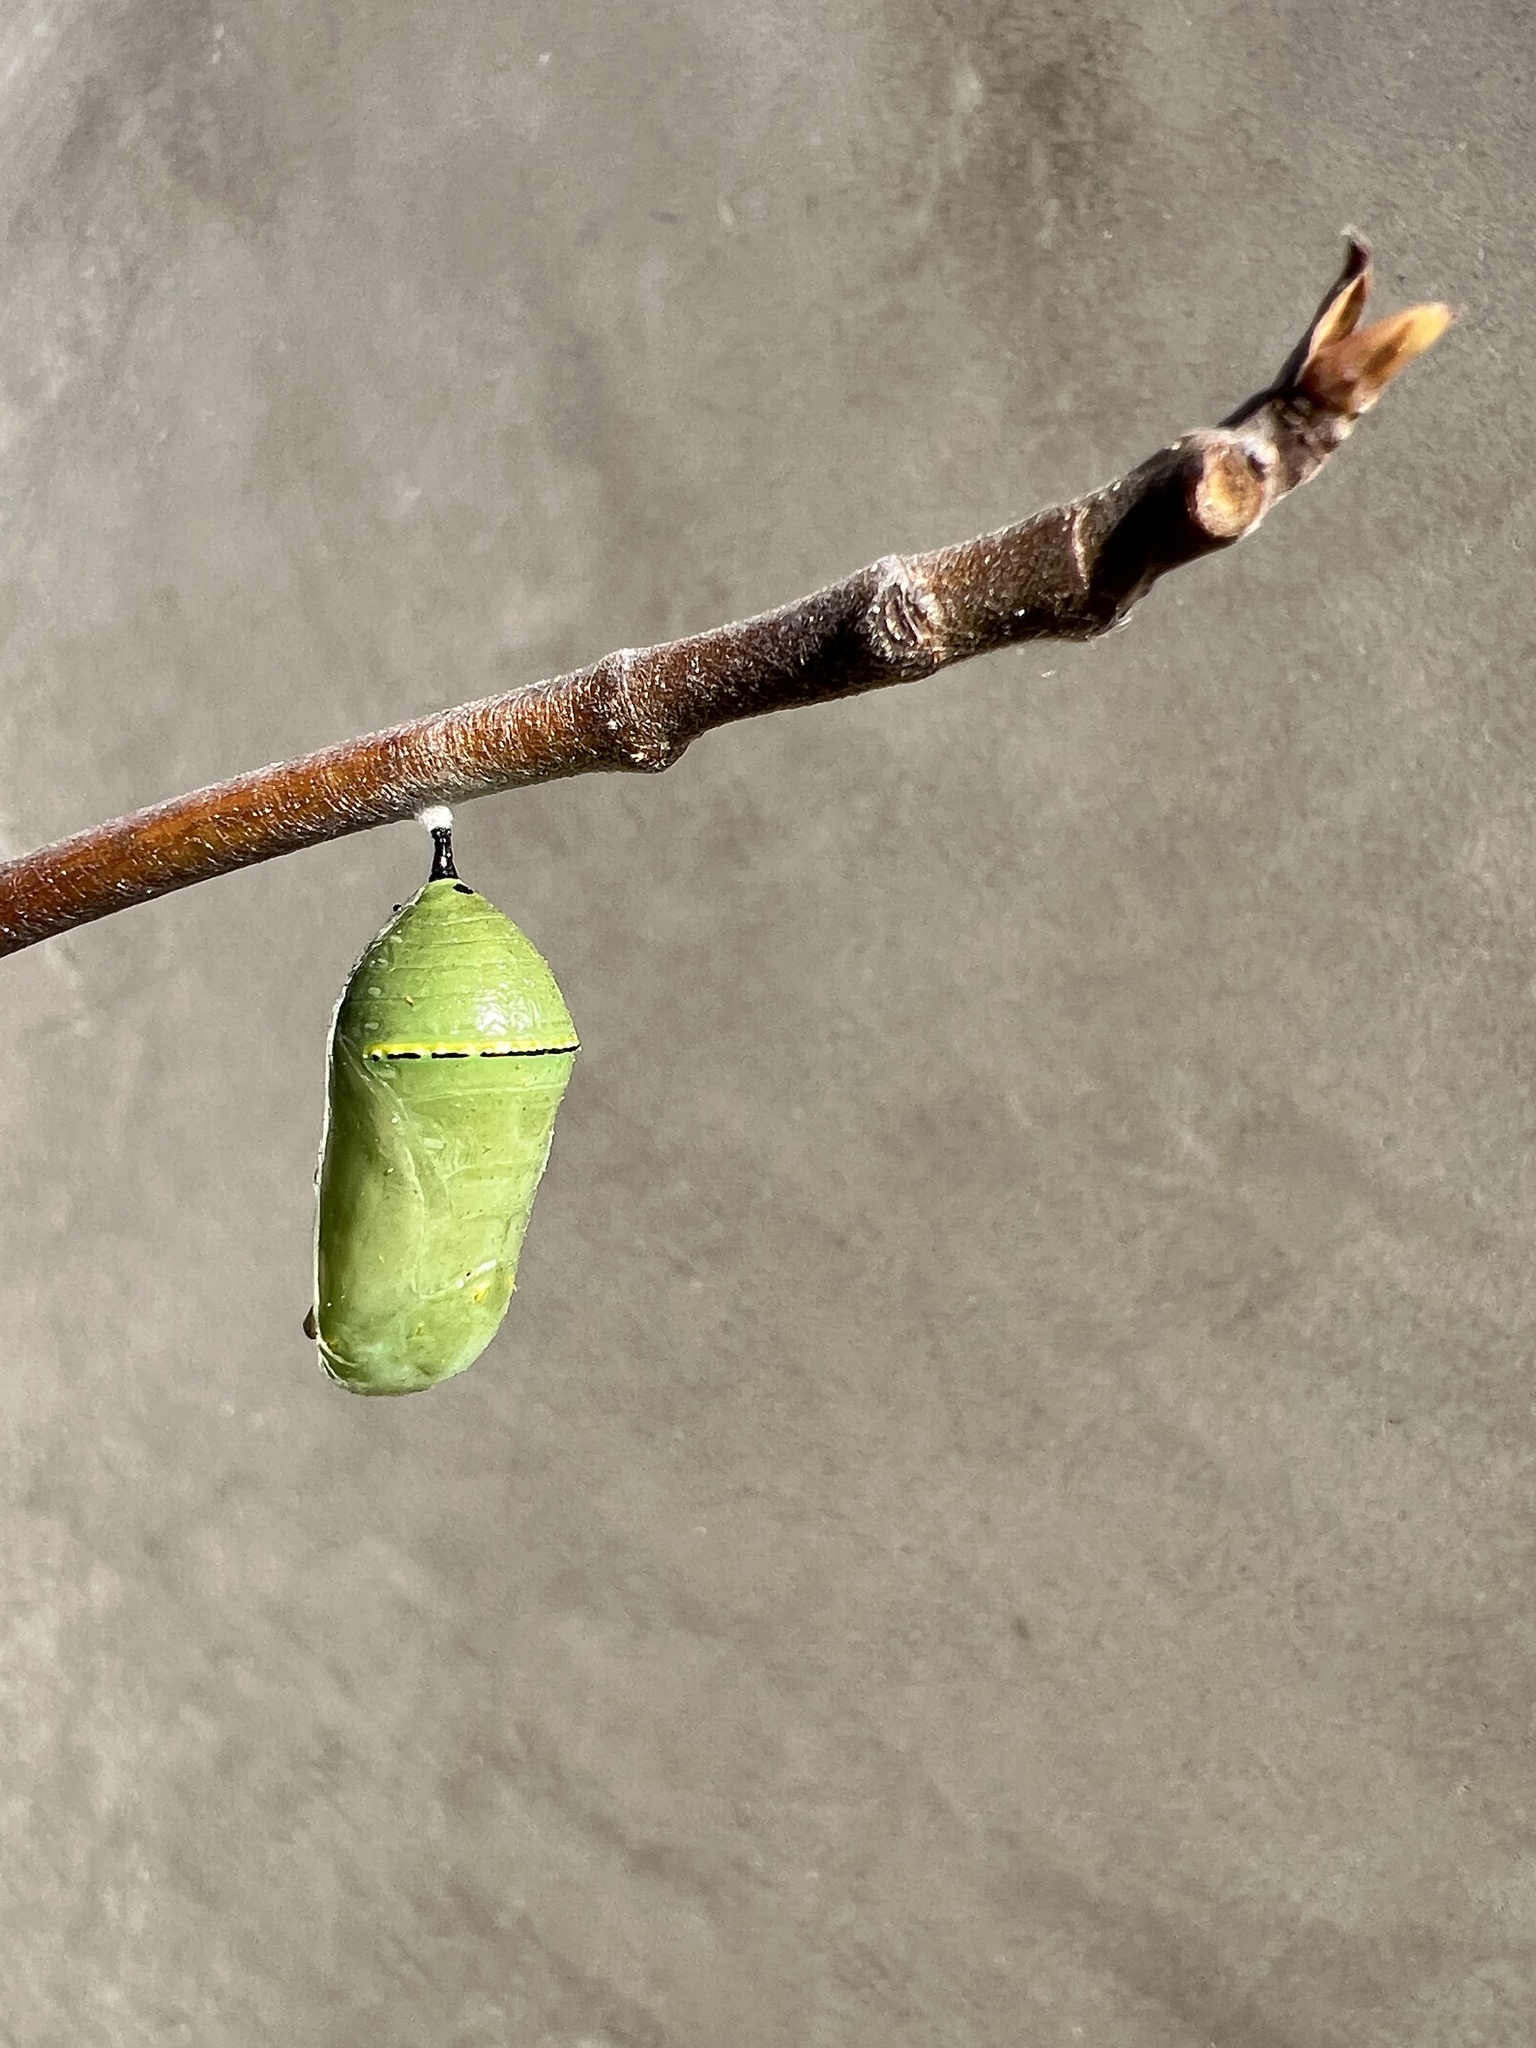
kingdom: Animalia
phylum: Arthropoda
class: Insecta
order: Lepidoptera
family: Nymphalidae
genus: Danaus
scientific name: Danaus plexippus
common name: Monarch
